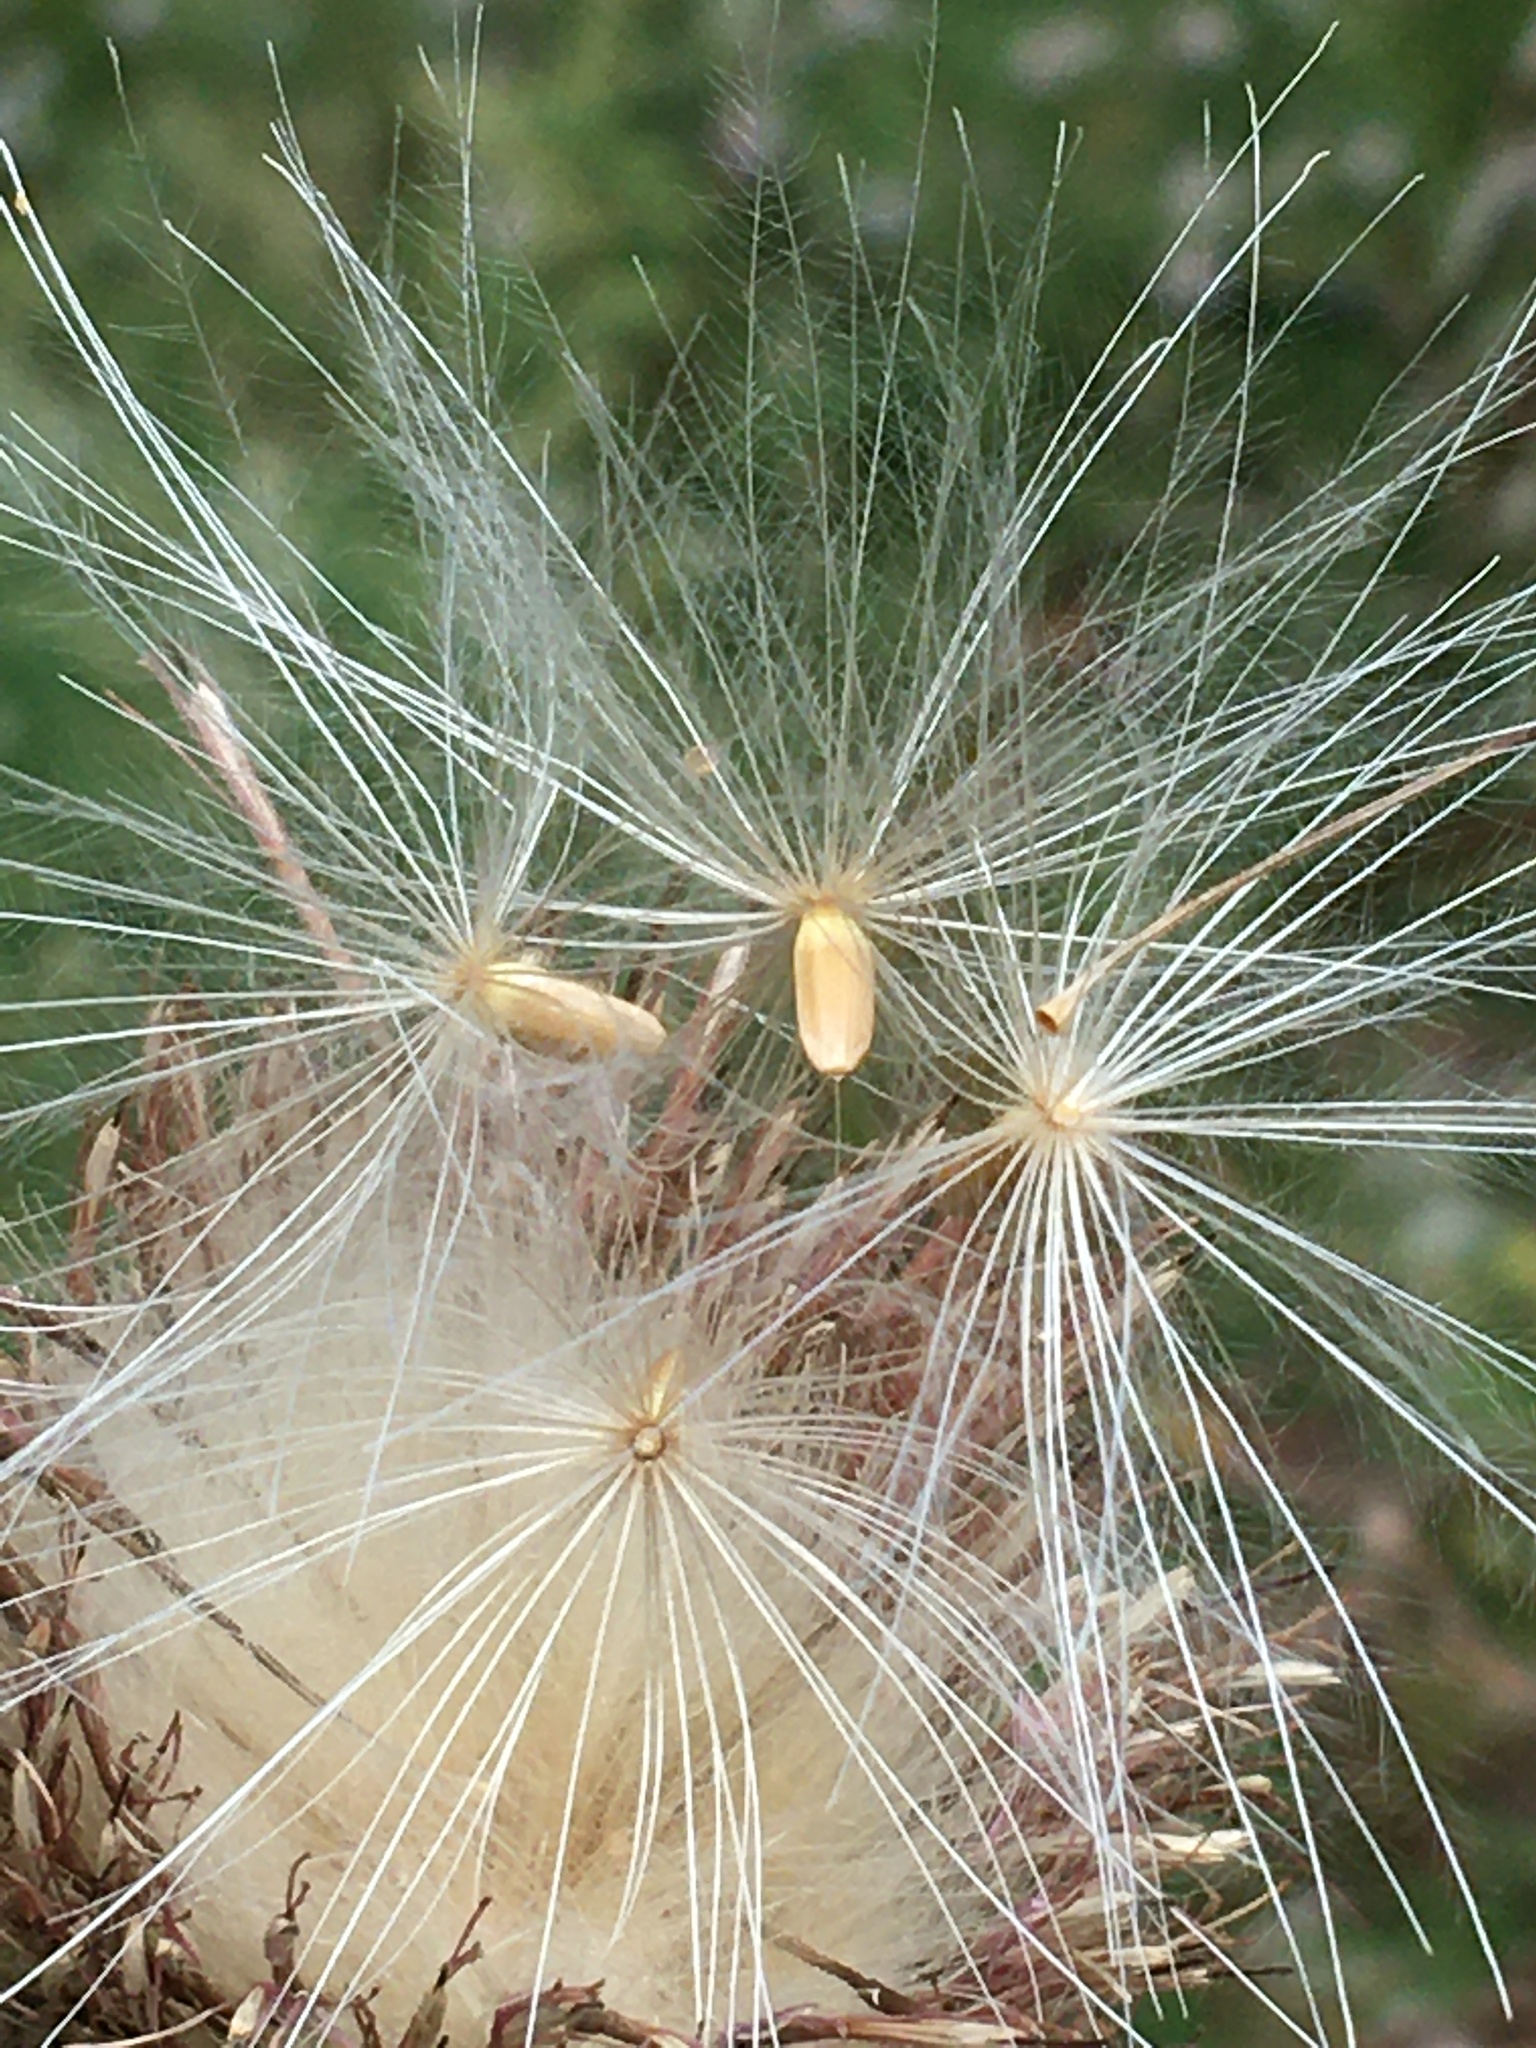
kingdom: Plantae
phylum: Tracheophyta
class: Magnoliopsida
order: Asterales
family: Asteraceae
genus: Cirsium
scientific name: Cirsium discolor
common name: Field thistle
